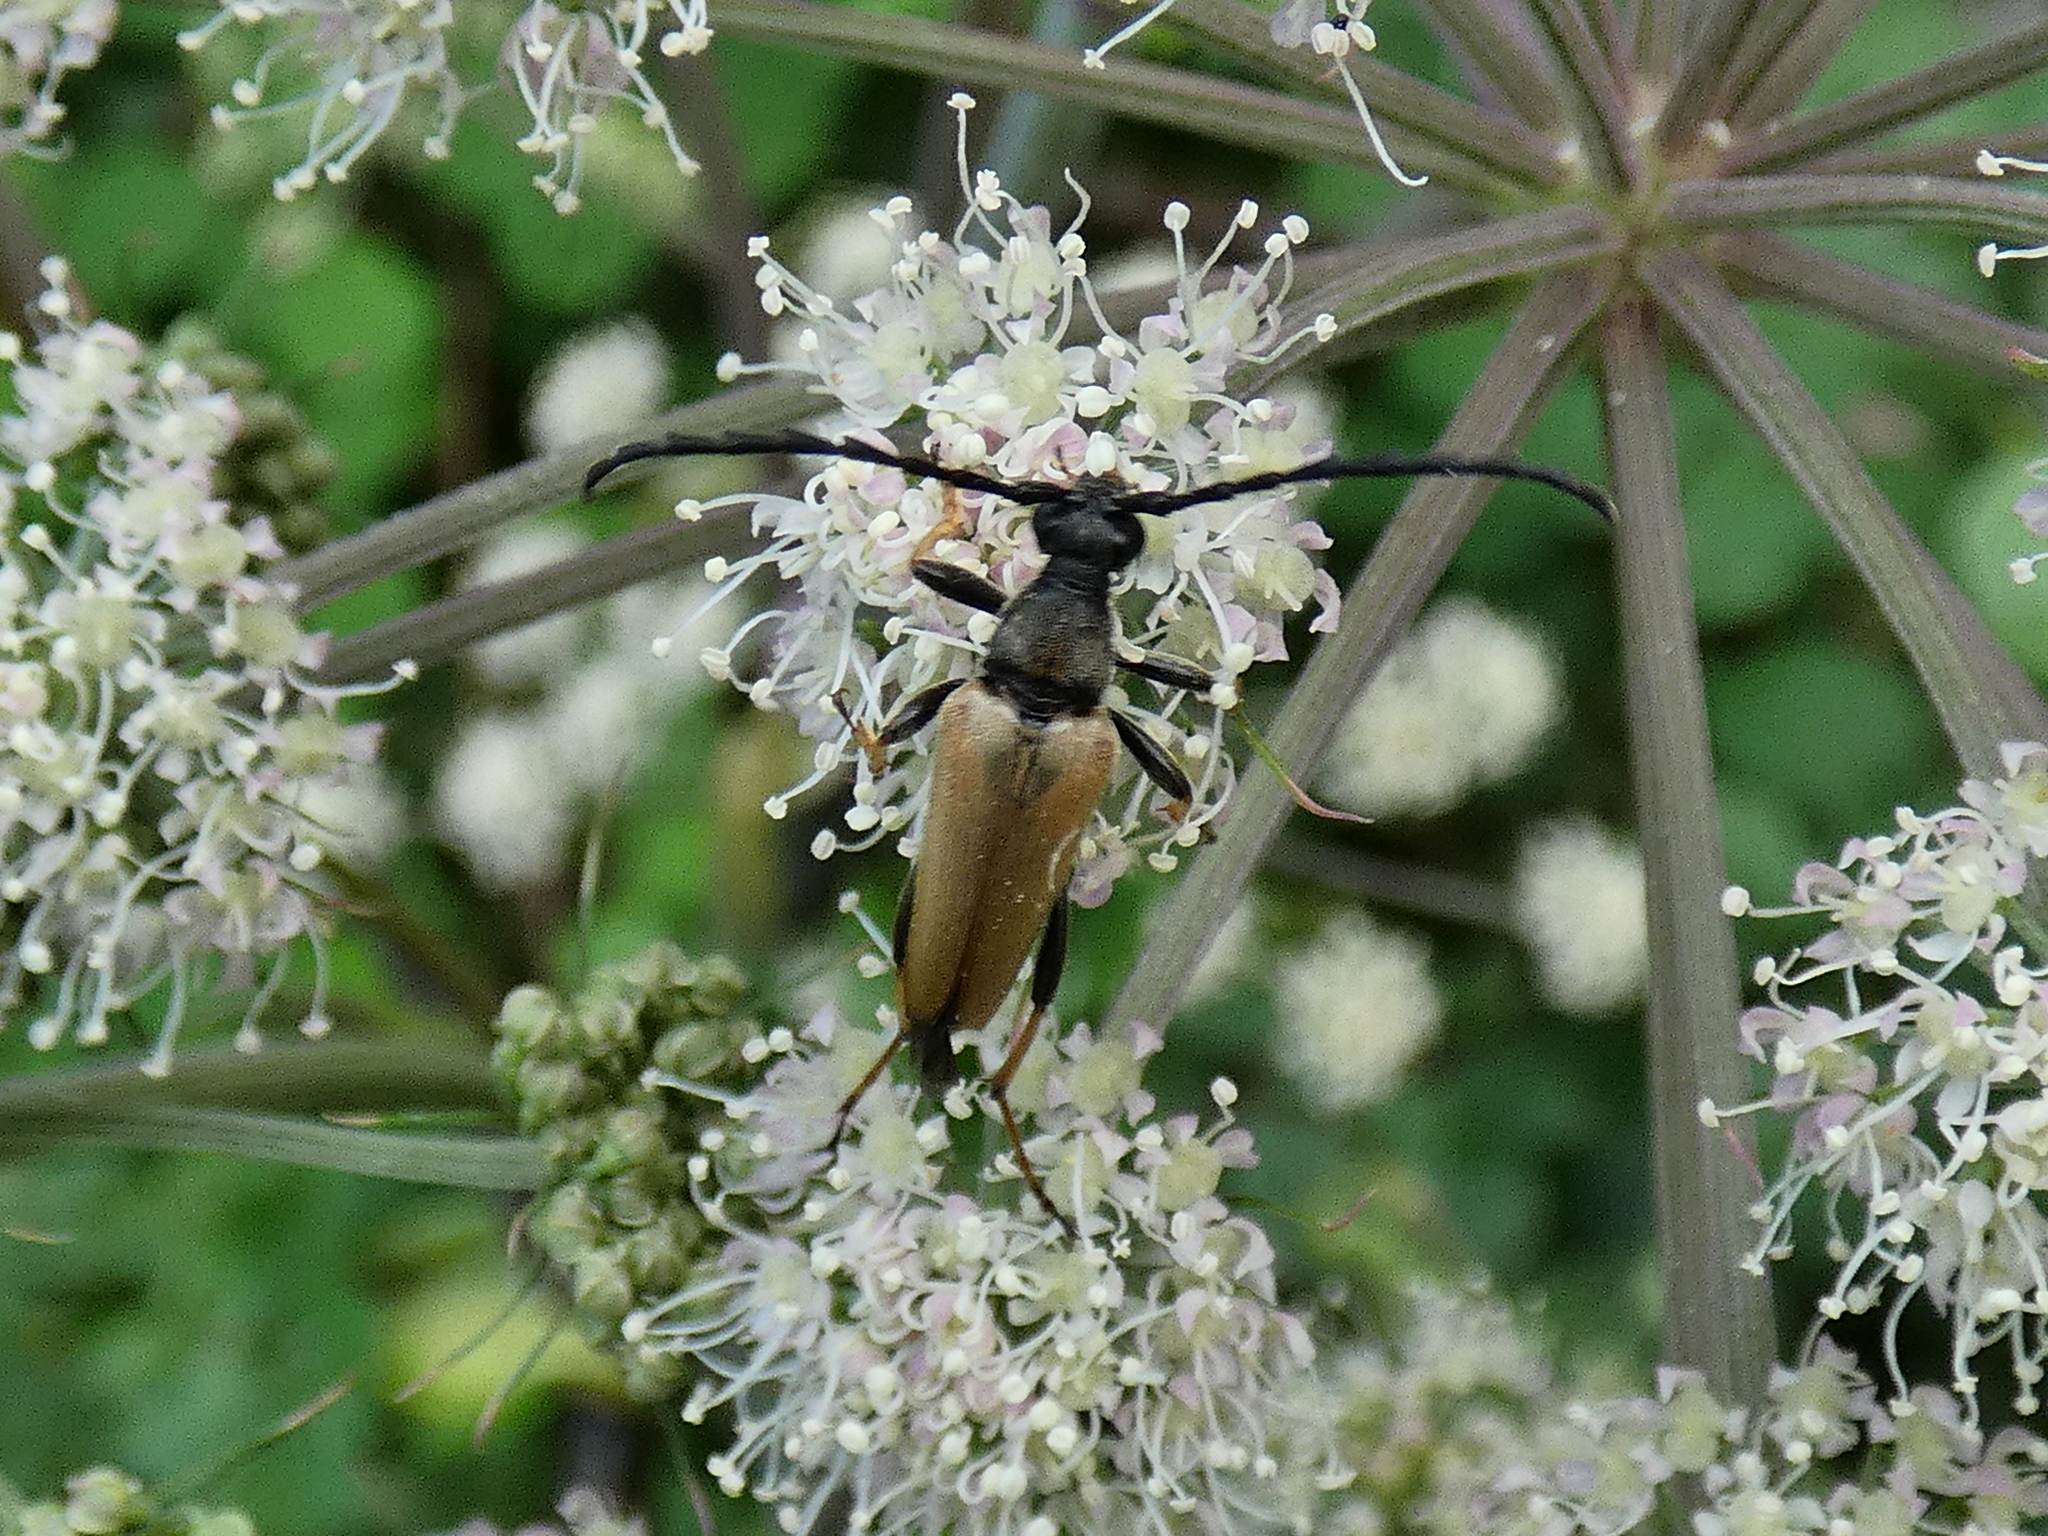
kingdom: Animalia
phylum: Arthropoda
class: Insecta
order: Coleoptera
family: Cerambycidae
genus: Stictoleptura
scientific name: Stictoleptura rubra
